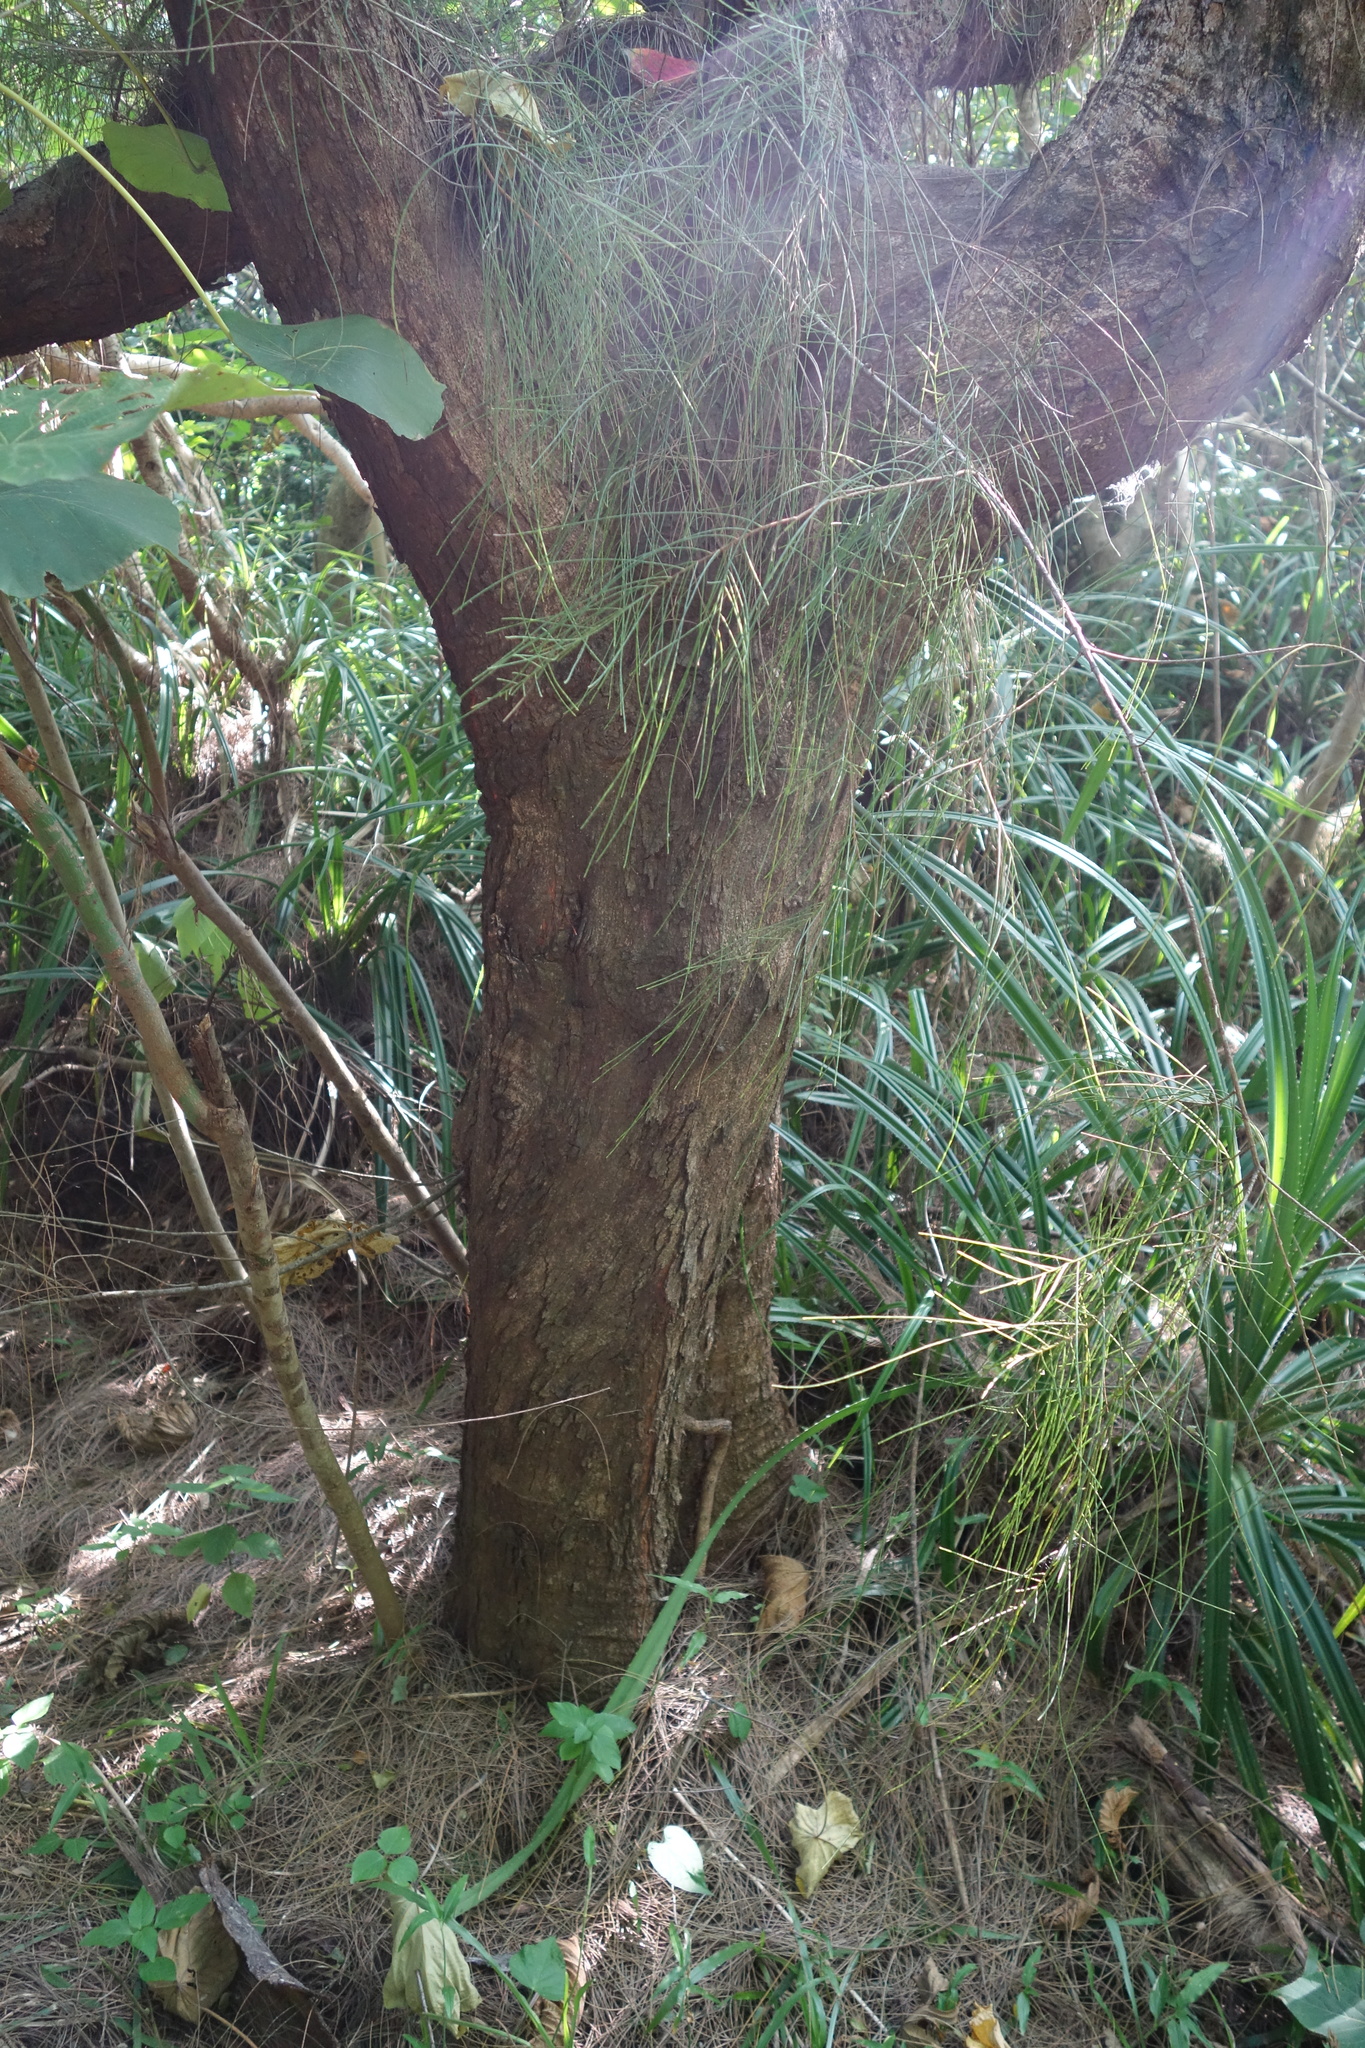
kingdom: Plantae
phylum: Tracheophyta
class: Magnoliopsida
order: Fagales
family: Casuarinaceae
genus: Casuarina
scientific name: Casuarina equisetifolia
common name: Beach sheoak
